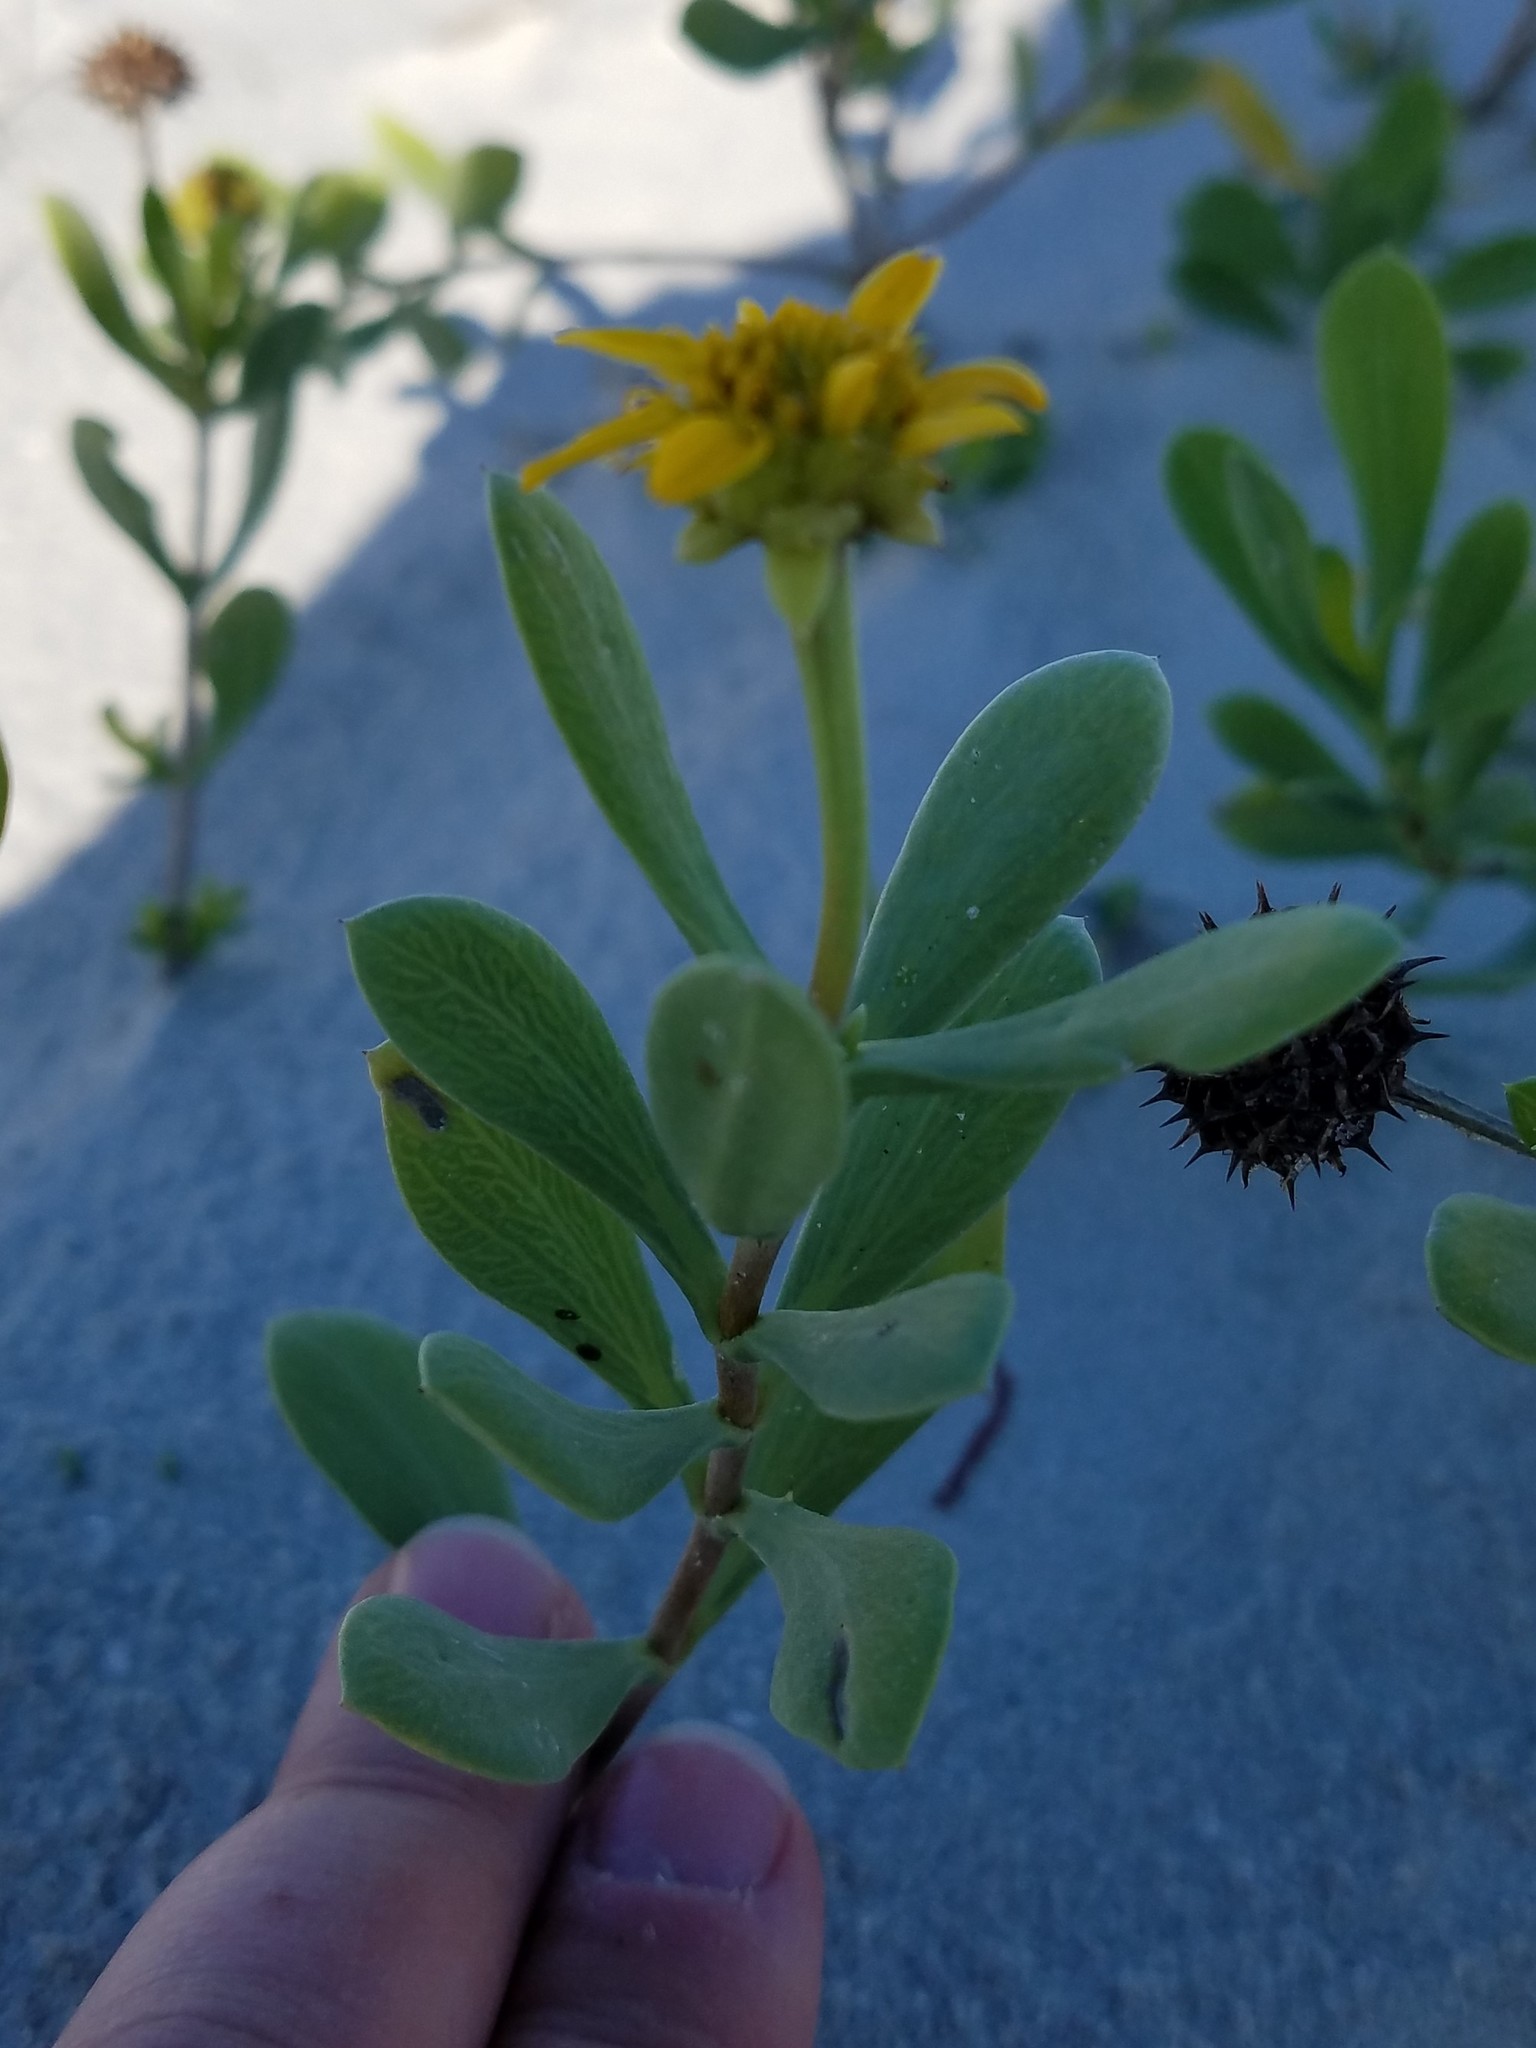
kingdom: Plantae
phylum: Tracheophyta
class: Magnoliopsida
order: Asterales
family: Asteraceae
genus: Borrichia
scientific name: Borrichia frutescens
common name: Sea oxeye
